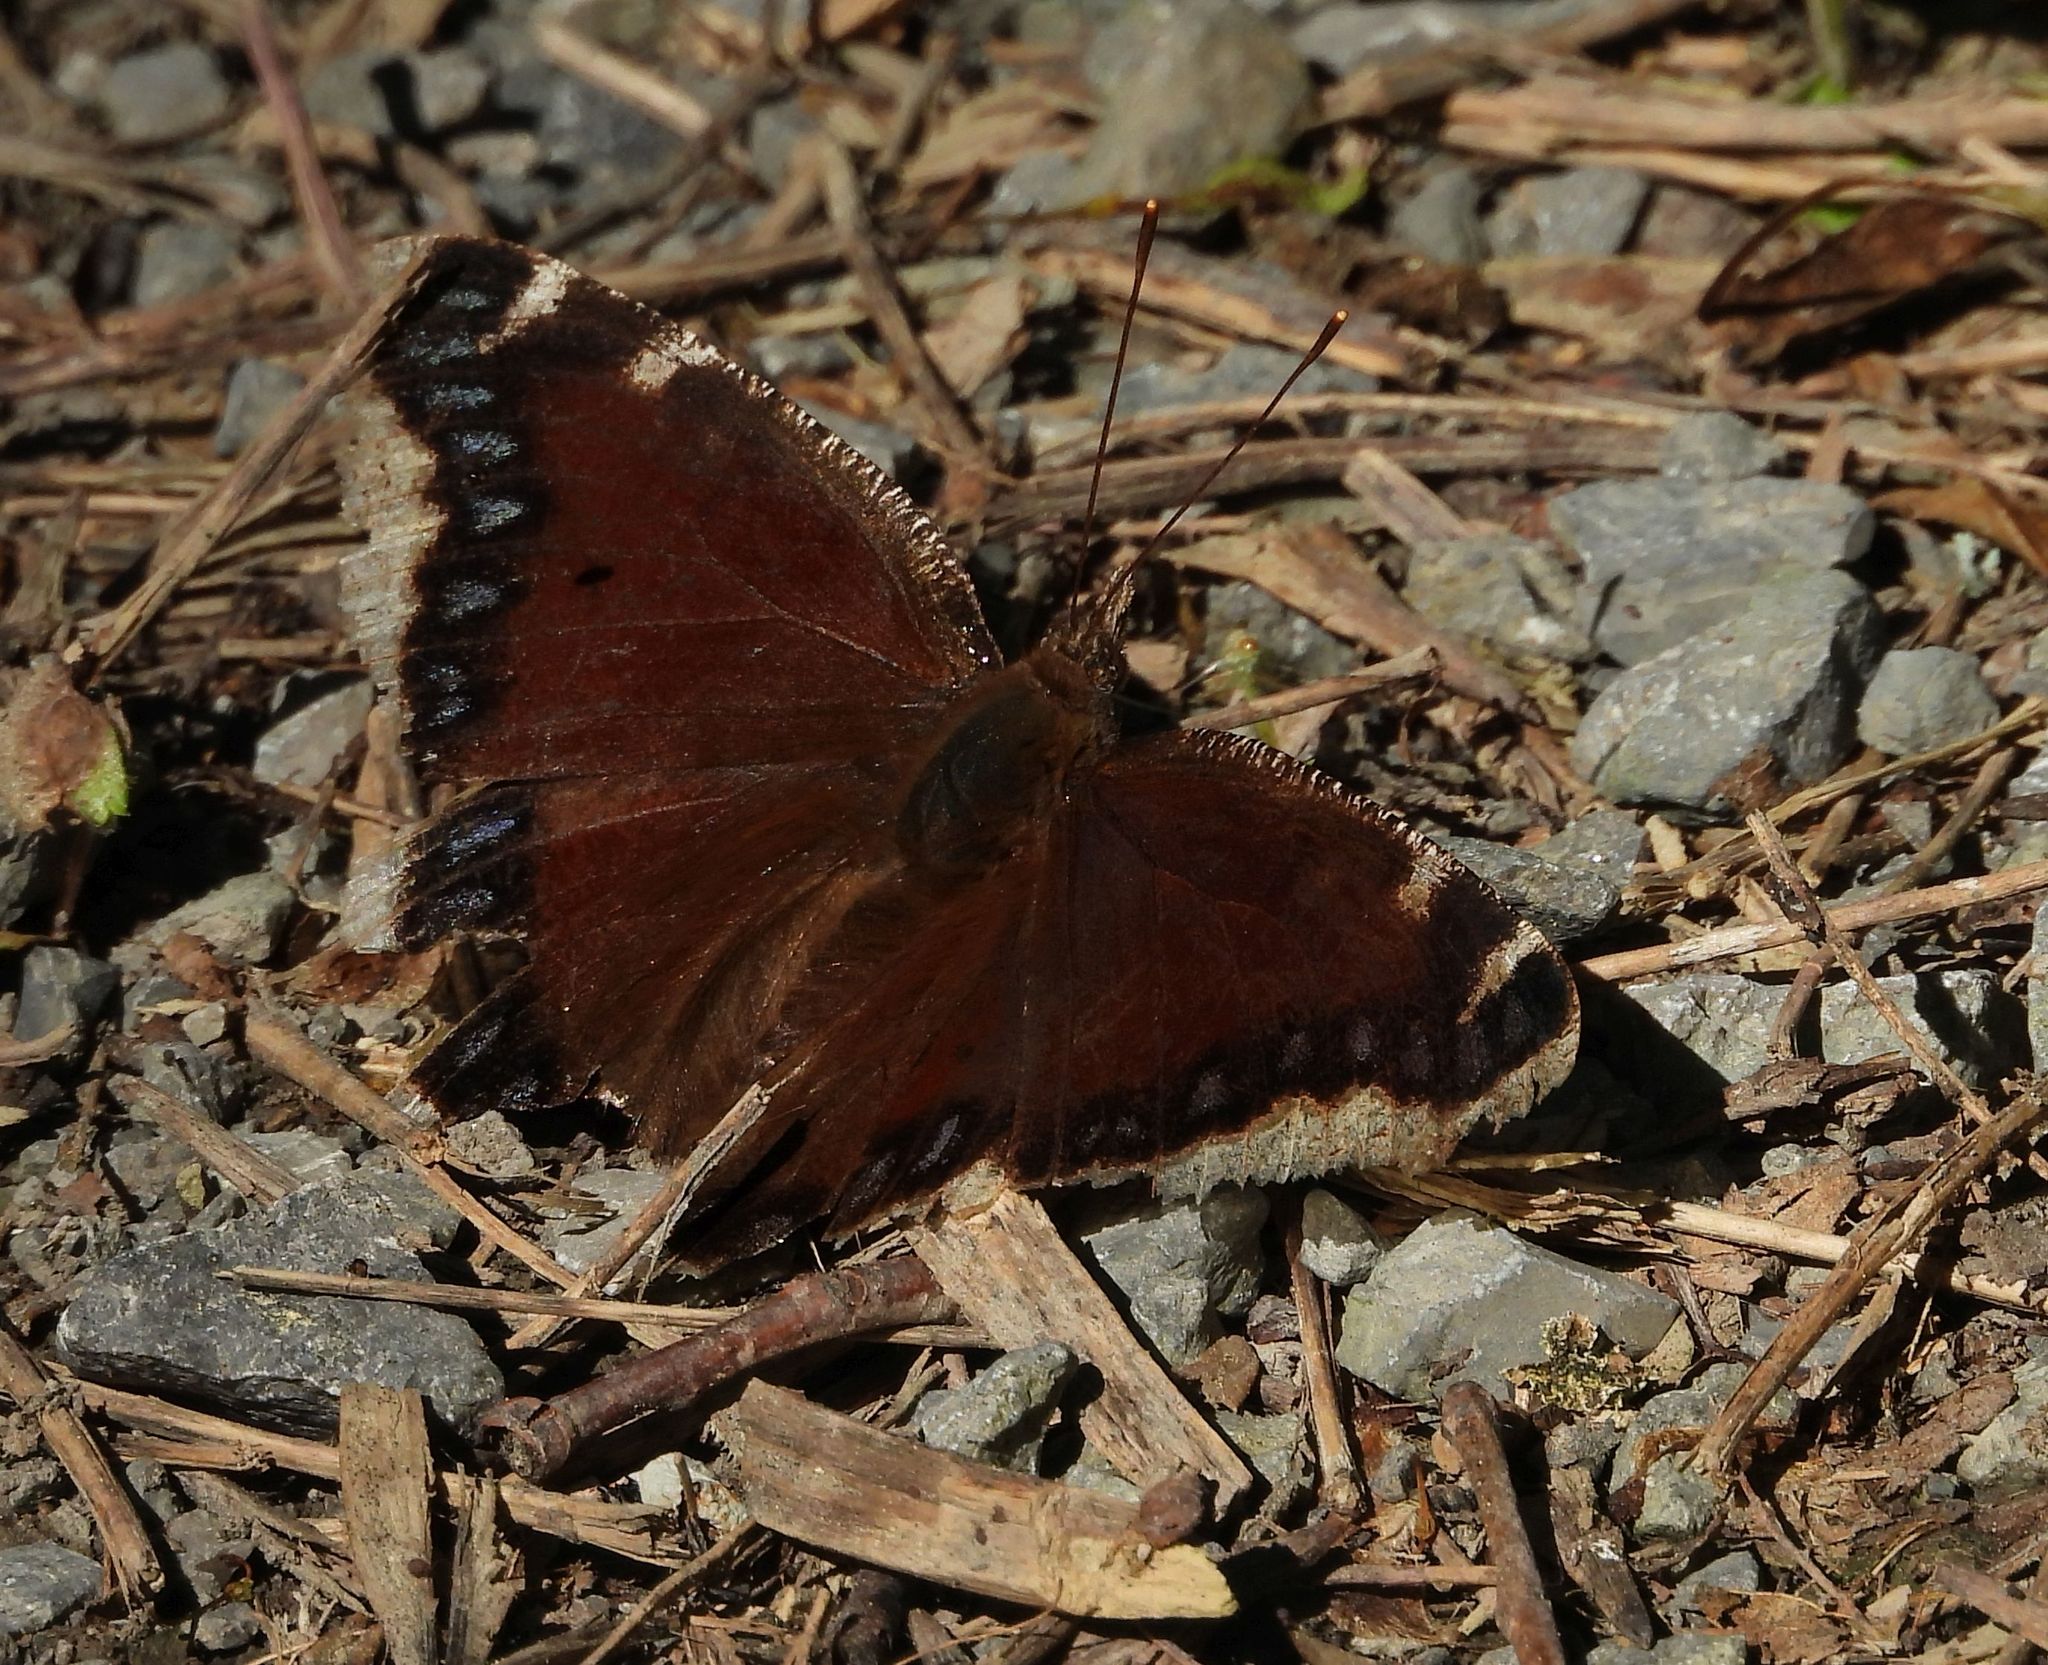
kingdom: Animalia
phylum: Arthropoda
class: Insecta
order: Lepidoptera
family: Nymphalidae
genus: Nymphalis
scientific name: Nymphalis antiopa
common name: Camberwell beauty
